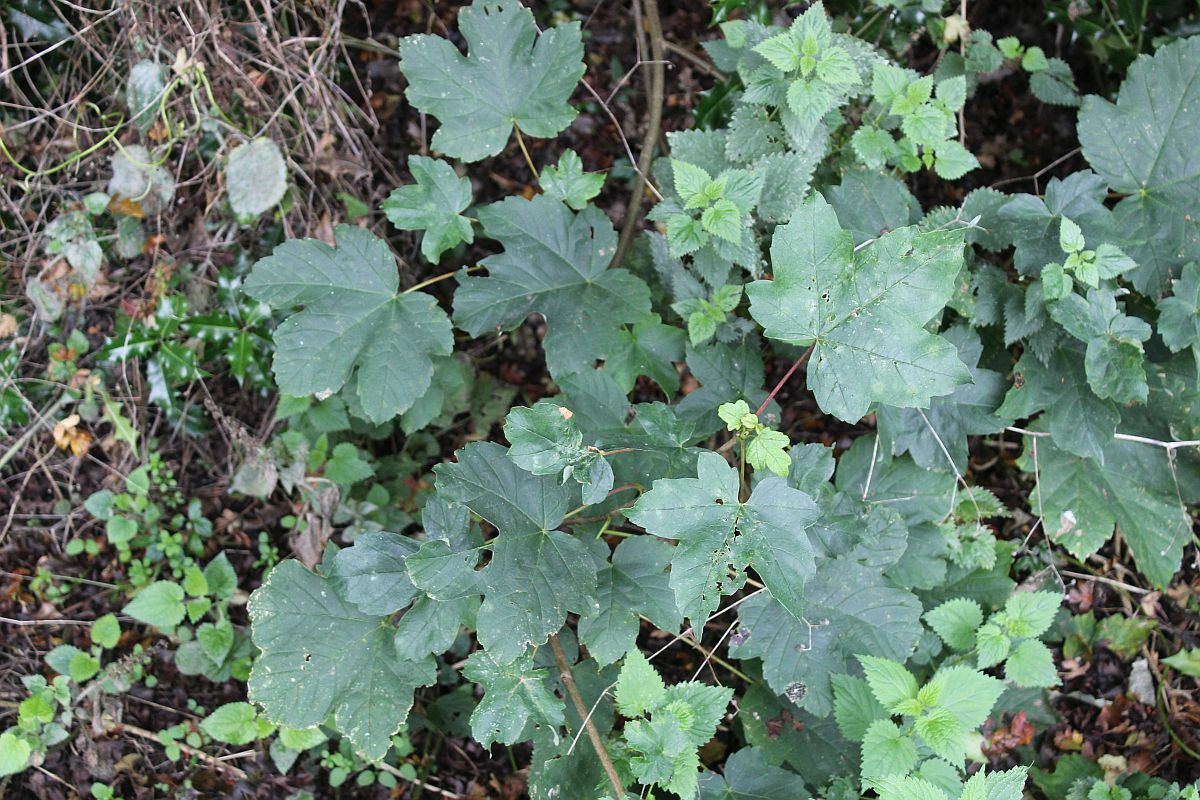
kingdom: Plantae
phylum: Tracheophyta
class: Magnoliopsida
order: Sapindales
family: Sapindaceae
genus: Acer
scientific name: Acer pseudoplatanus
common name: Sycamore
